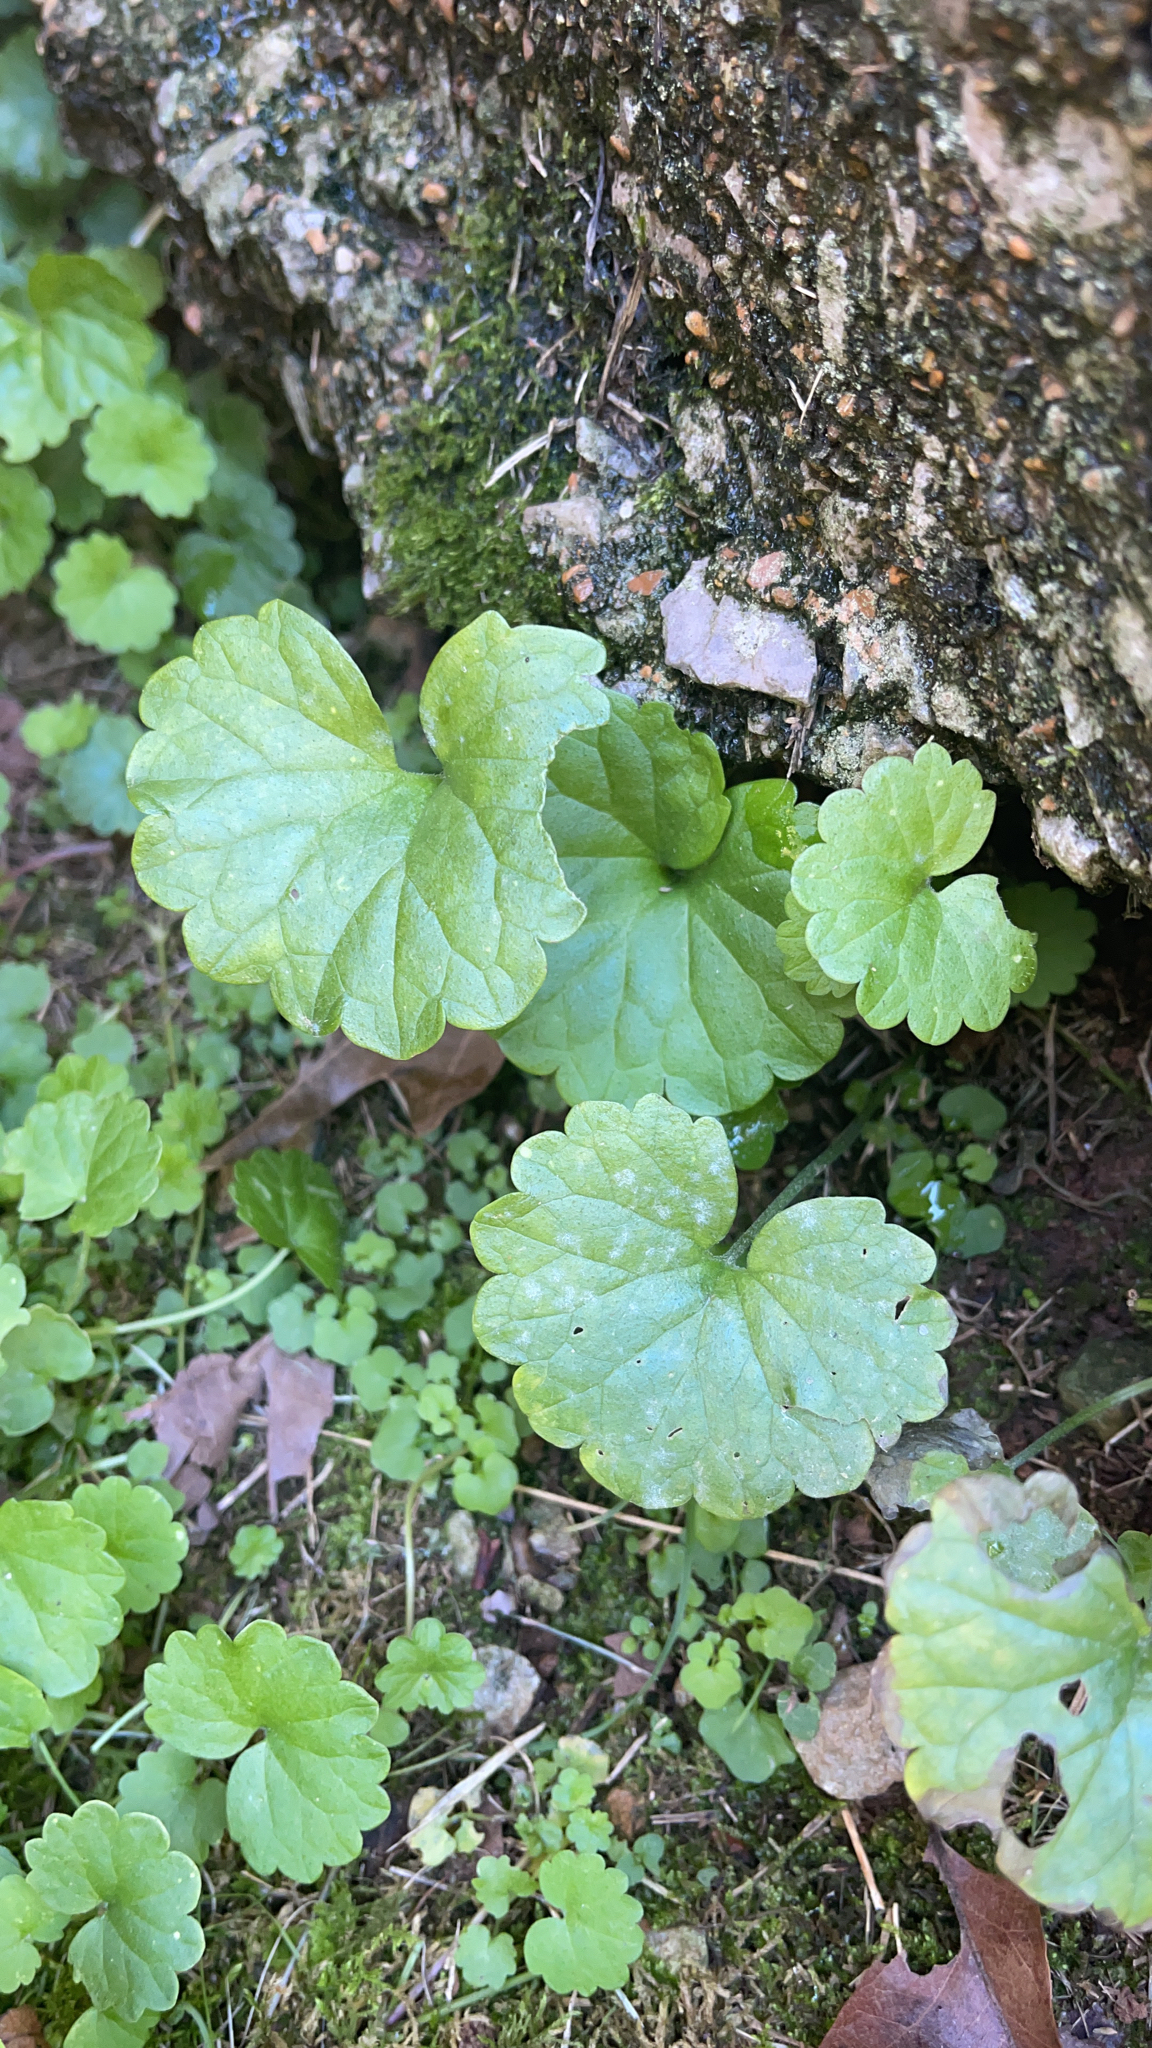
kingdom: Plantae
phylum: Tracheophyta
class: Magnoliopsida
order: Lamiales
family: Lamiaceae
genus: Glechoma
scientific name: Glechoma hederacea
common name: Ground ivy
